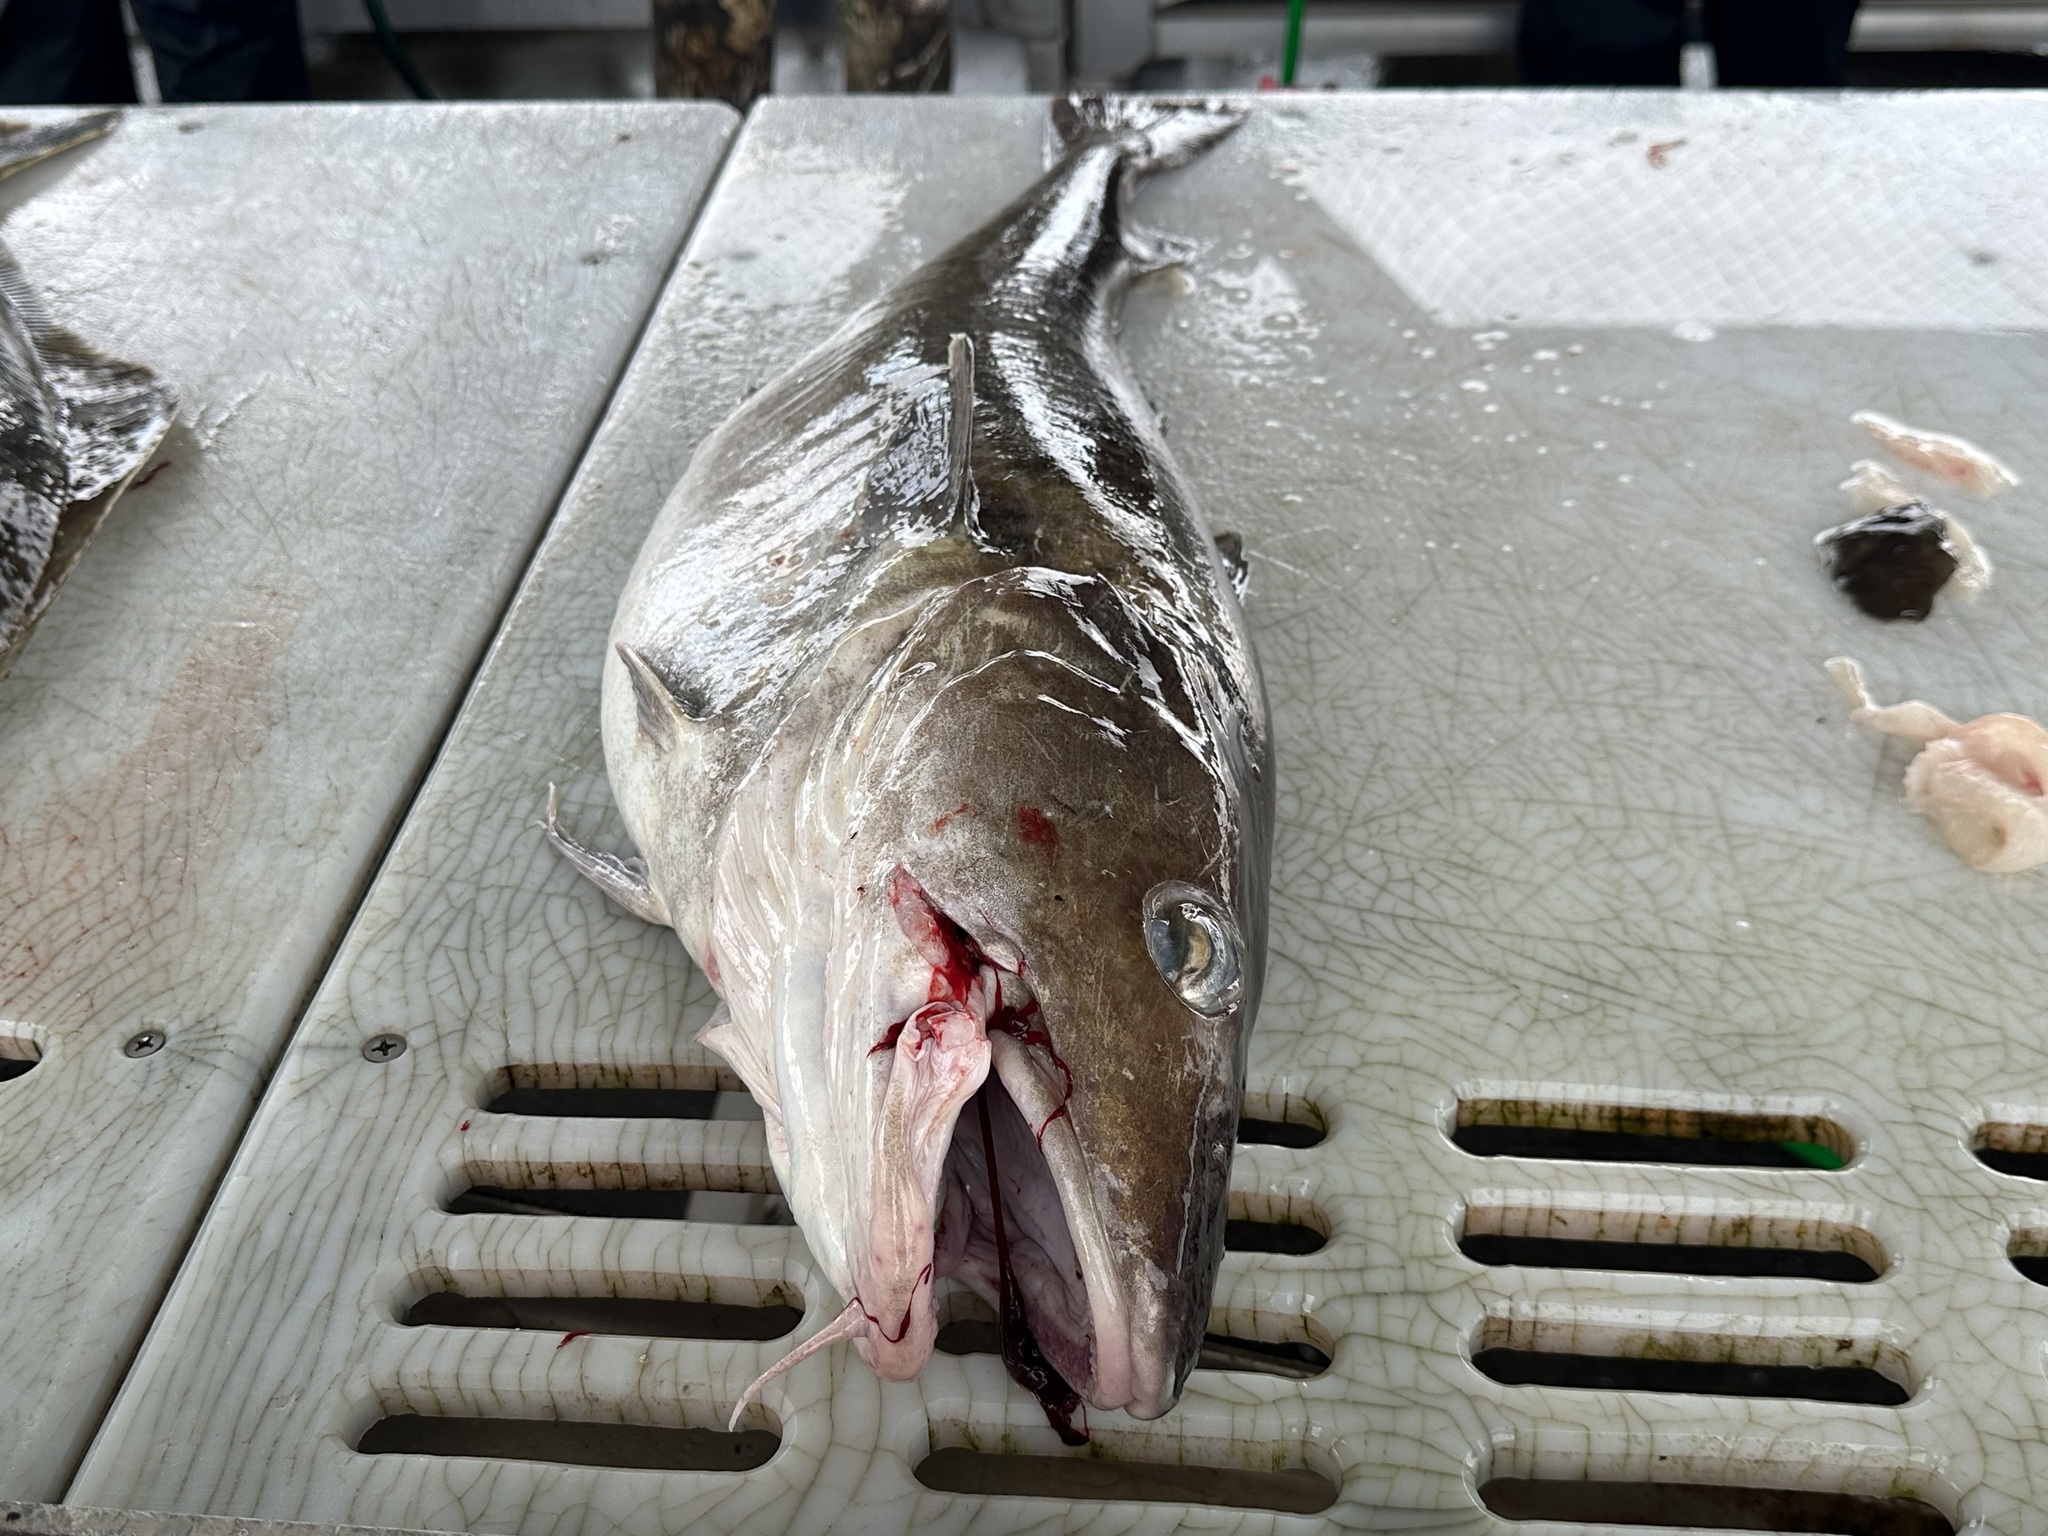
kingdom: Animalia
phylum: Chordata
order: Gadiformes
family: Gadidae
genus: Gadus
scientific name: Gadus macrocephalus
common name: Pacific cod
